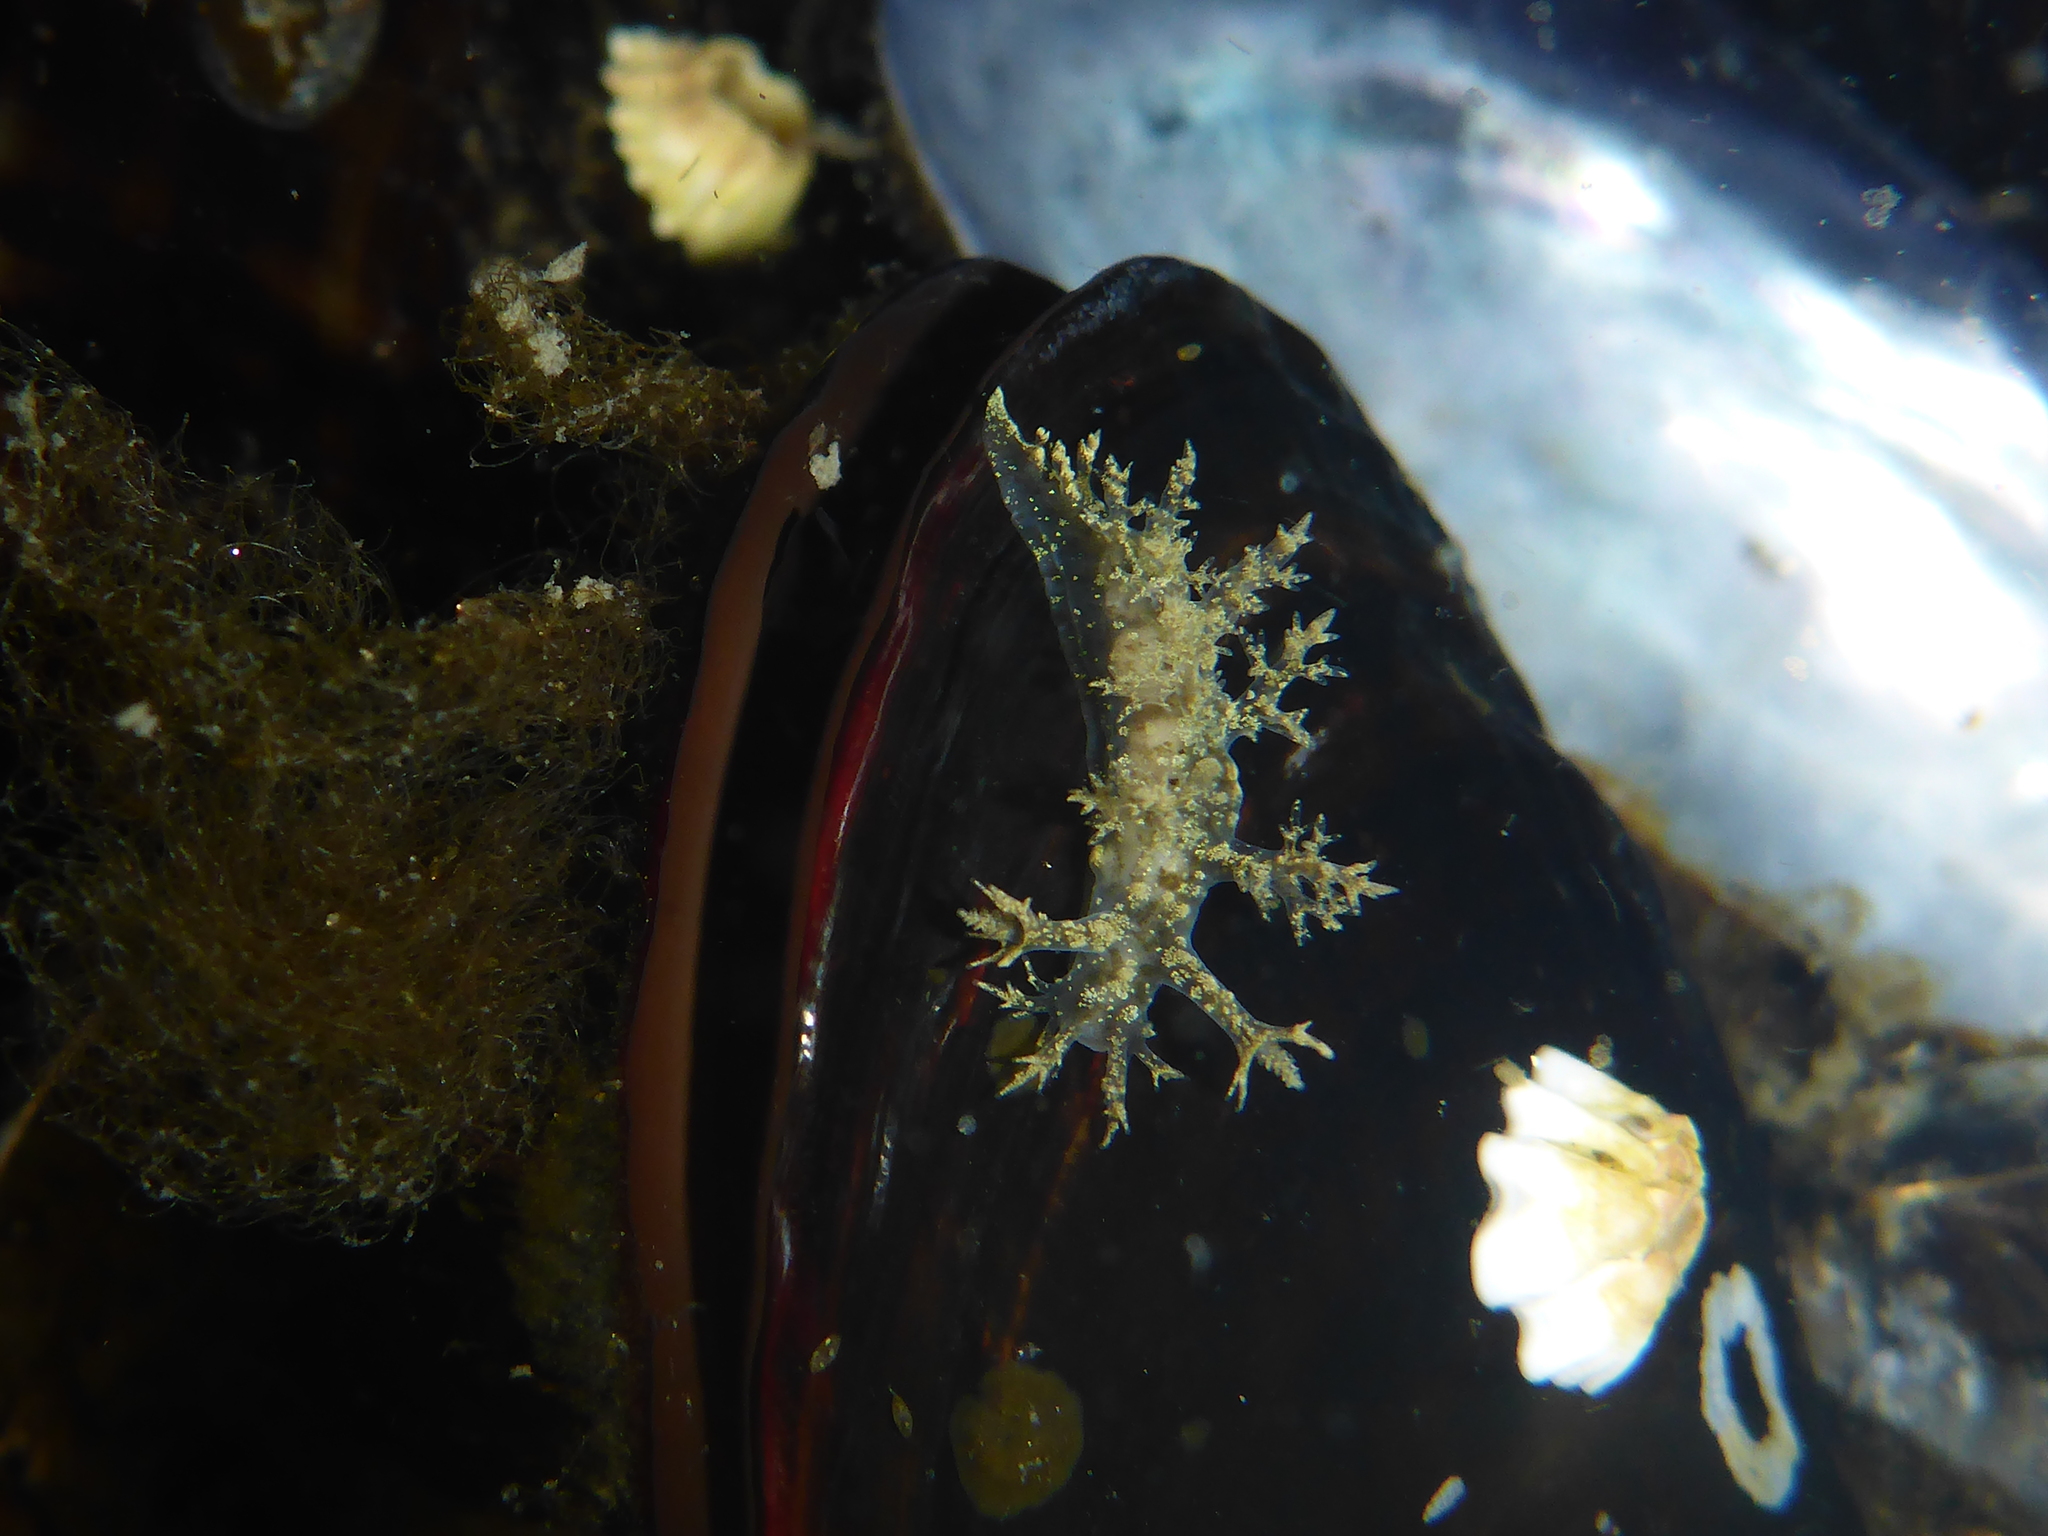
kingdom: Animalia
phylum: Mollusca
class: Gastropoda
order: Nudibranchia
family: Dendronotidae
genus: Dendronotus
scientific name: Dendronotus venustus
